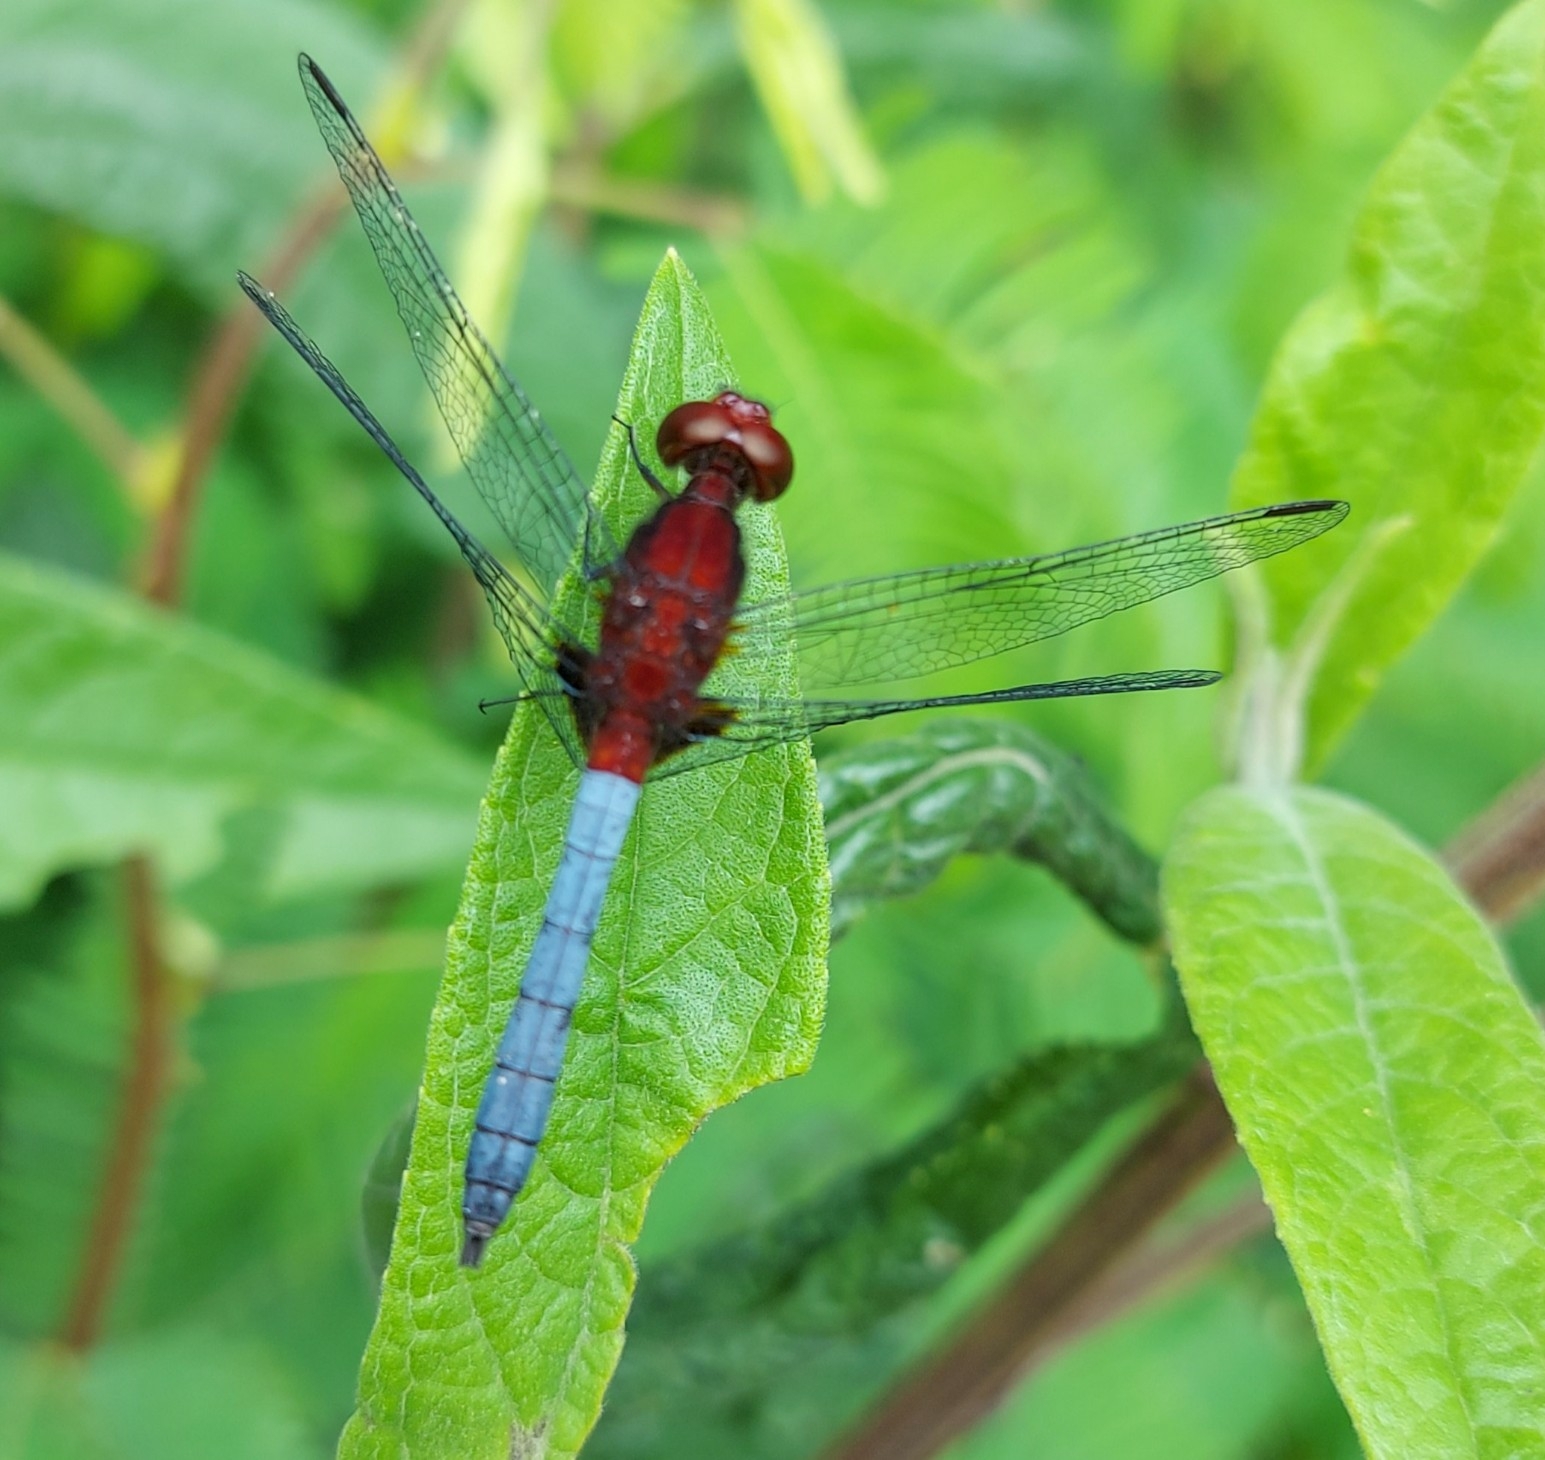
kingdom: Animalia
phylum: Arthropoda
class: Insecta
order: Odonata
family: Libellulidae
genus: Erythrodiplax
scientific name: Erythrodiplax fusca
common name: Red-faced dragonlet
